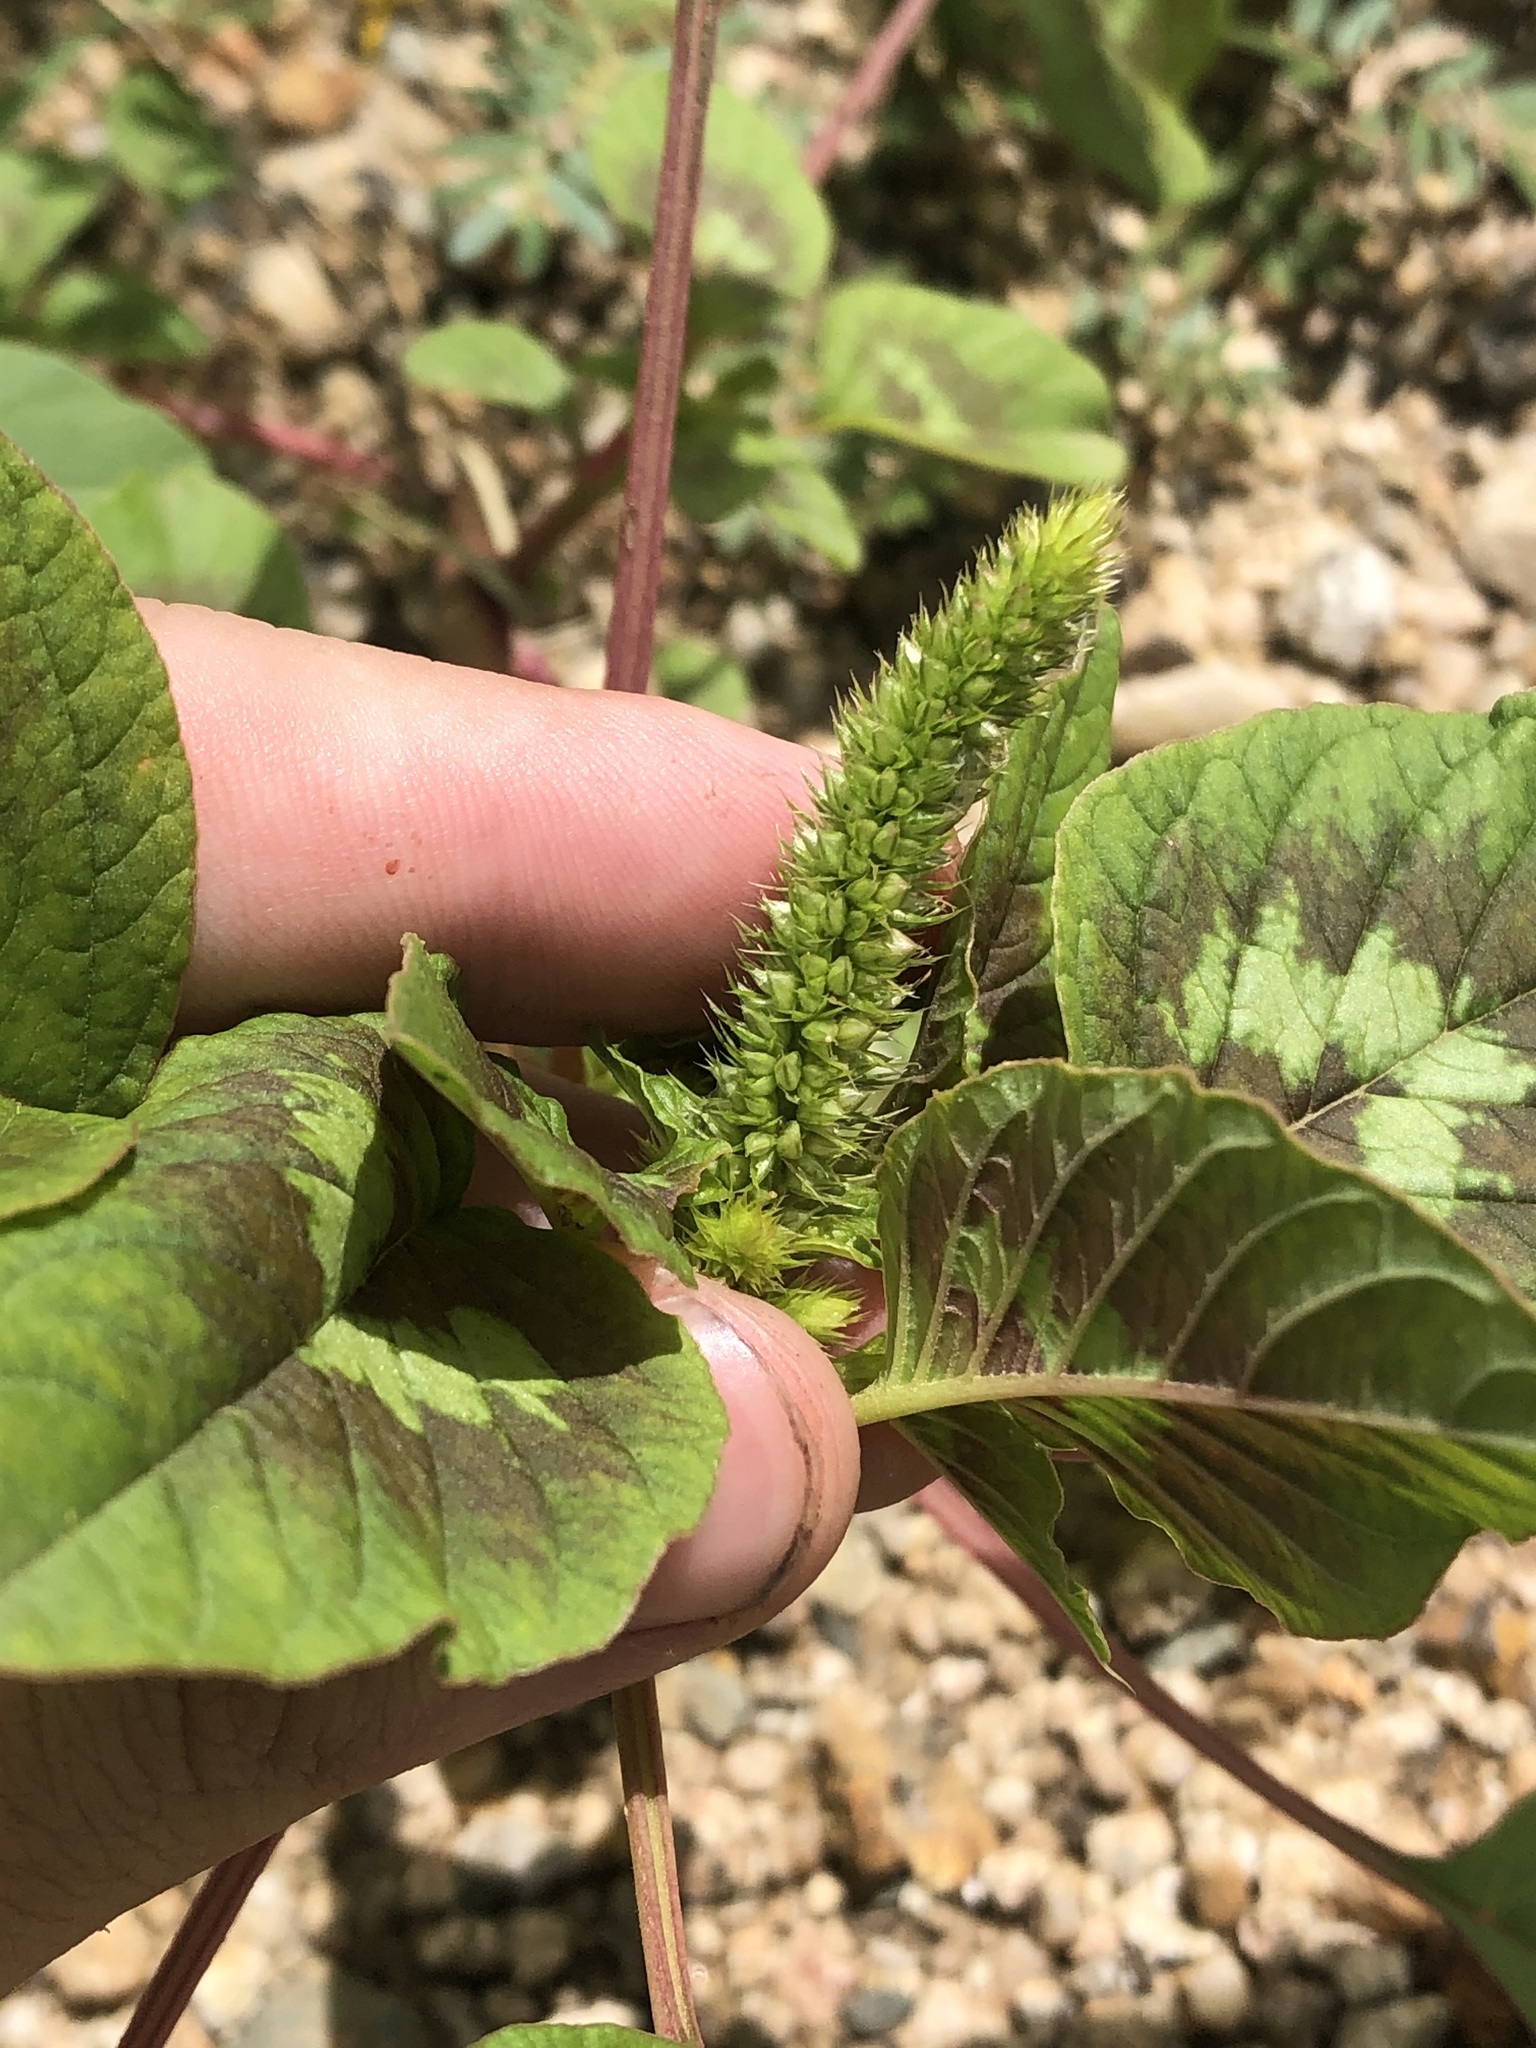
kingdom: Plantae
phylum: Tracheophyta
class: Magnoliopsida
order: Caryophyllales
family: Amaranthaceae
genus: Amaranthus
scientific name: Amaranthus palmeri
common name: Dioecious amaranth
